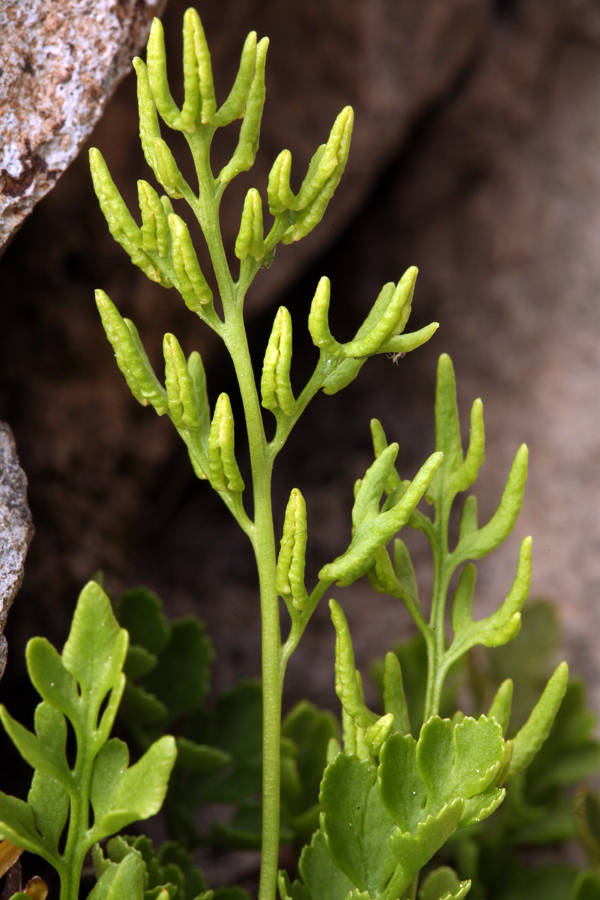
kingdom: Plantae
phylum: Tracheophyta
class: Polypodiopsida
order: Polypodiales
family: Pteridaceae
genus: Cryptogramma
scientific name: Cryptogramma acrostichoides
